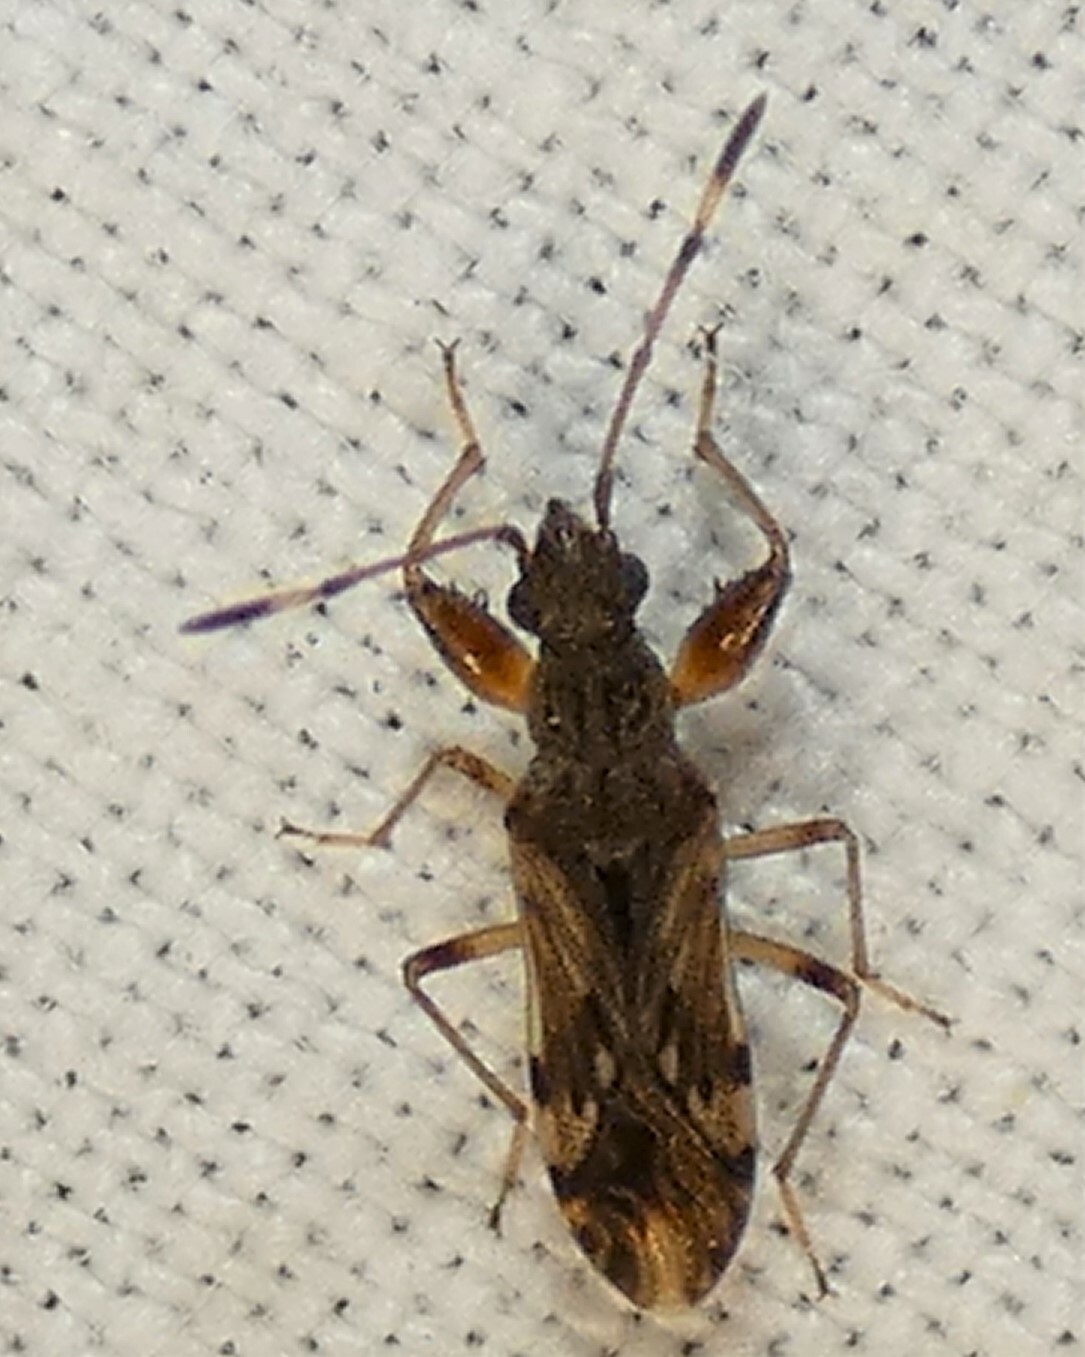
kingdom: Animalia
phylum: Arthropoda
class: Insecta
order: Hemiptera
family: Rhyparochromidae
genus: Neopamera
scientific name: Neopamera albocincta
